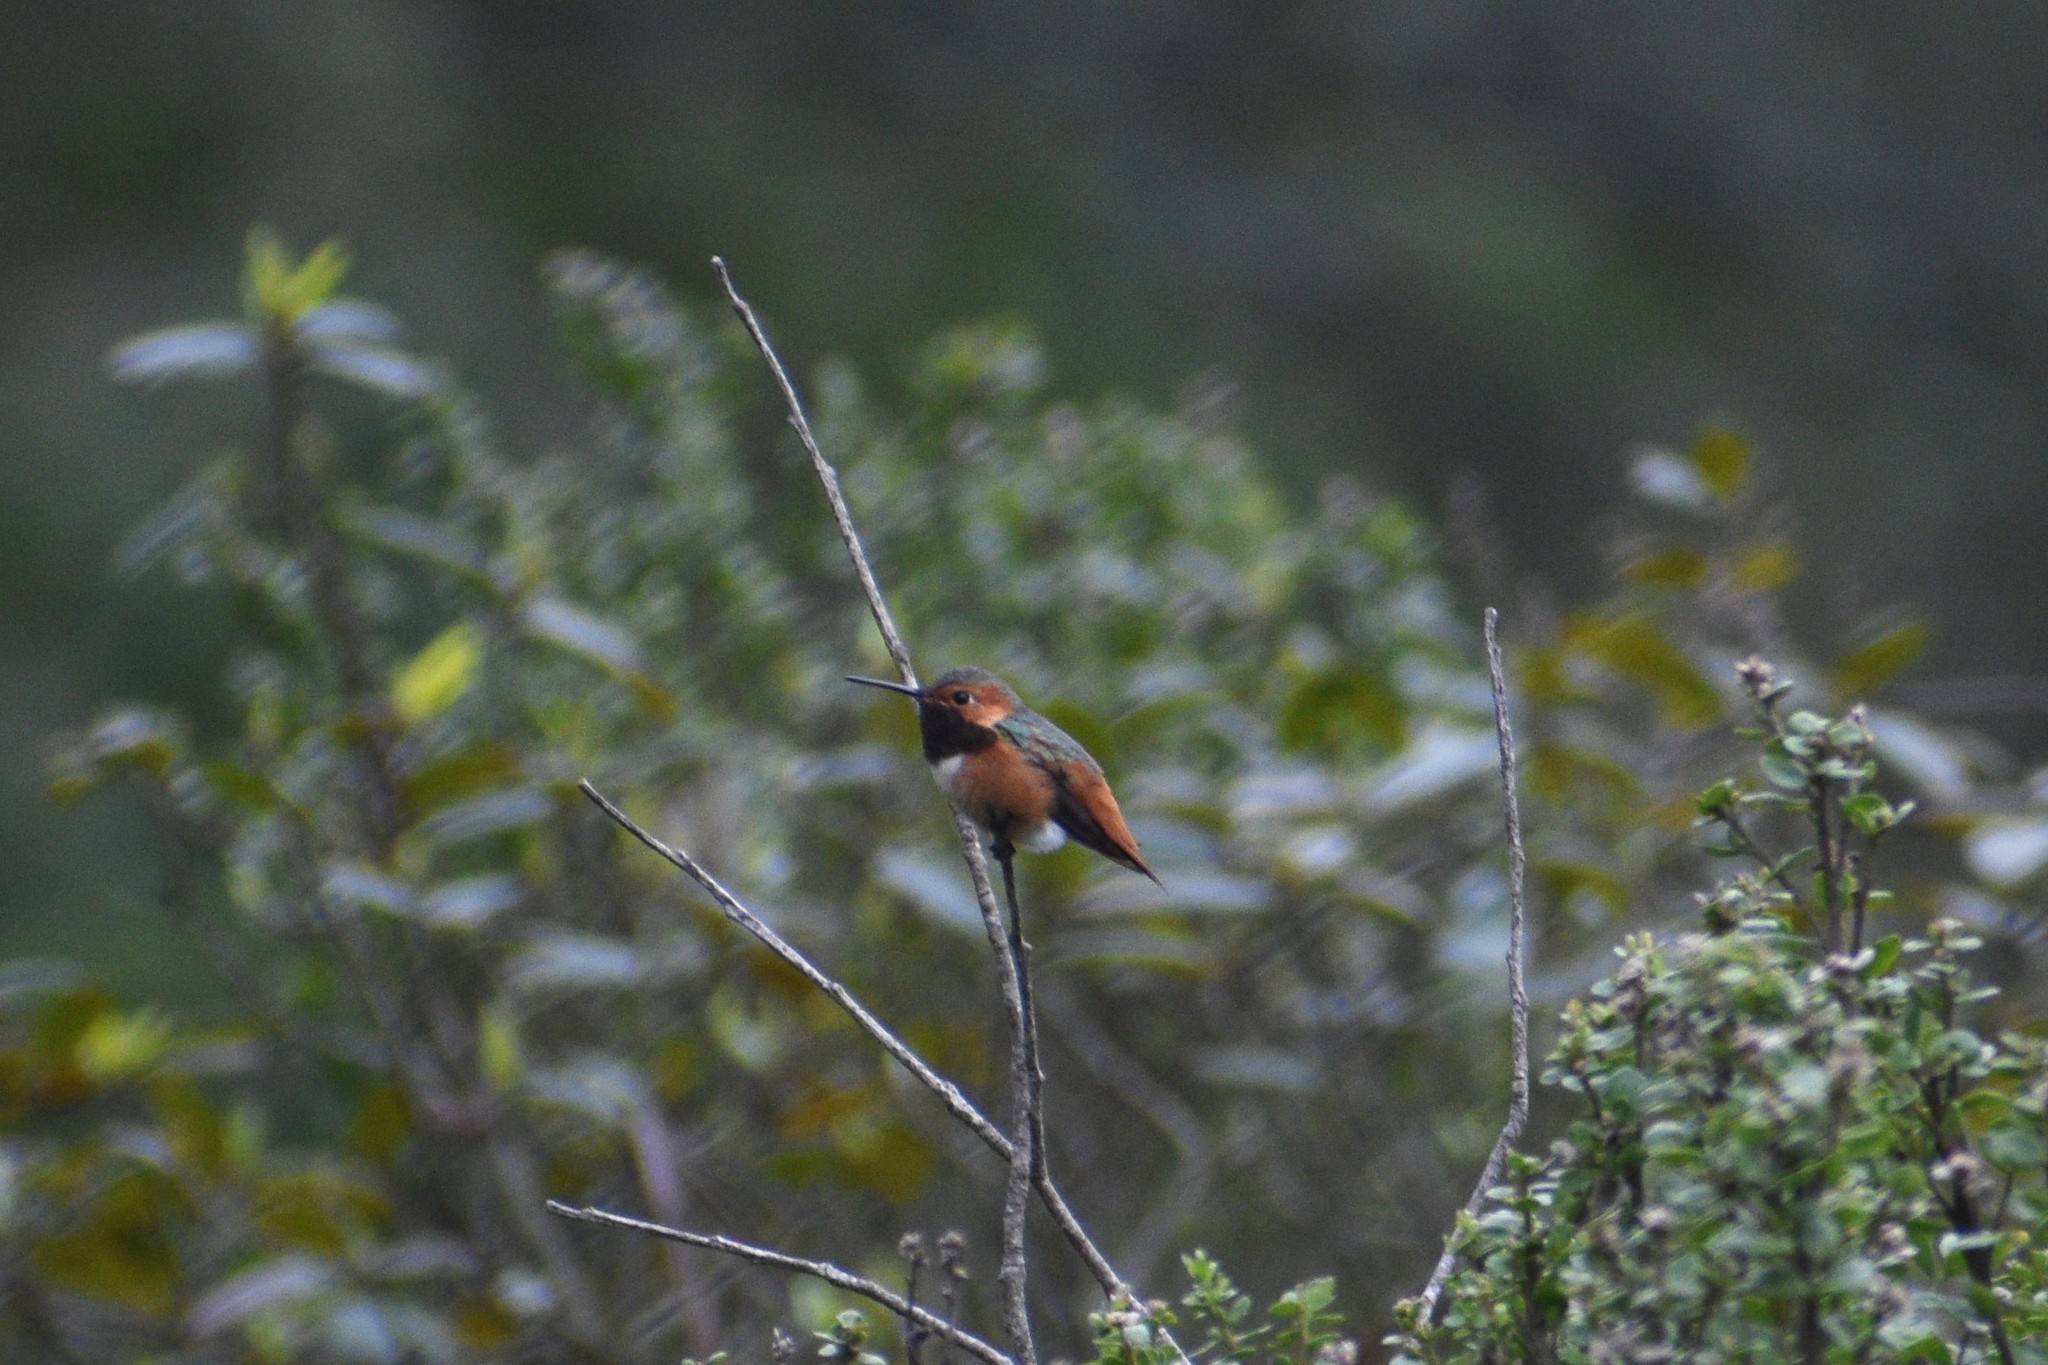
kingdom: Animalia
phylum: Chordata
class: Aves
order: Apodiformes
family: Trochilidae
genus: Selasphorus
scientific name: Selasphorus sasin
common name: Allen's hummingbird
